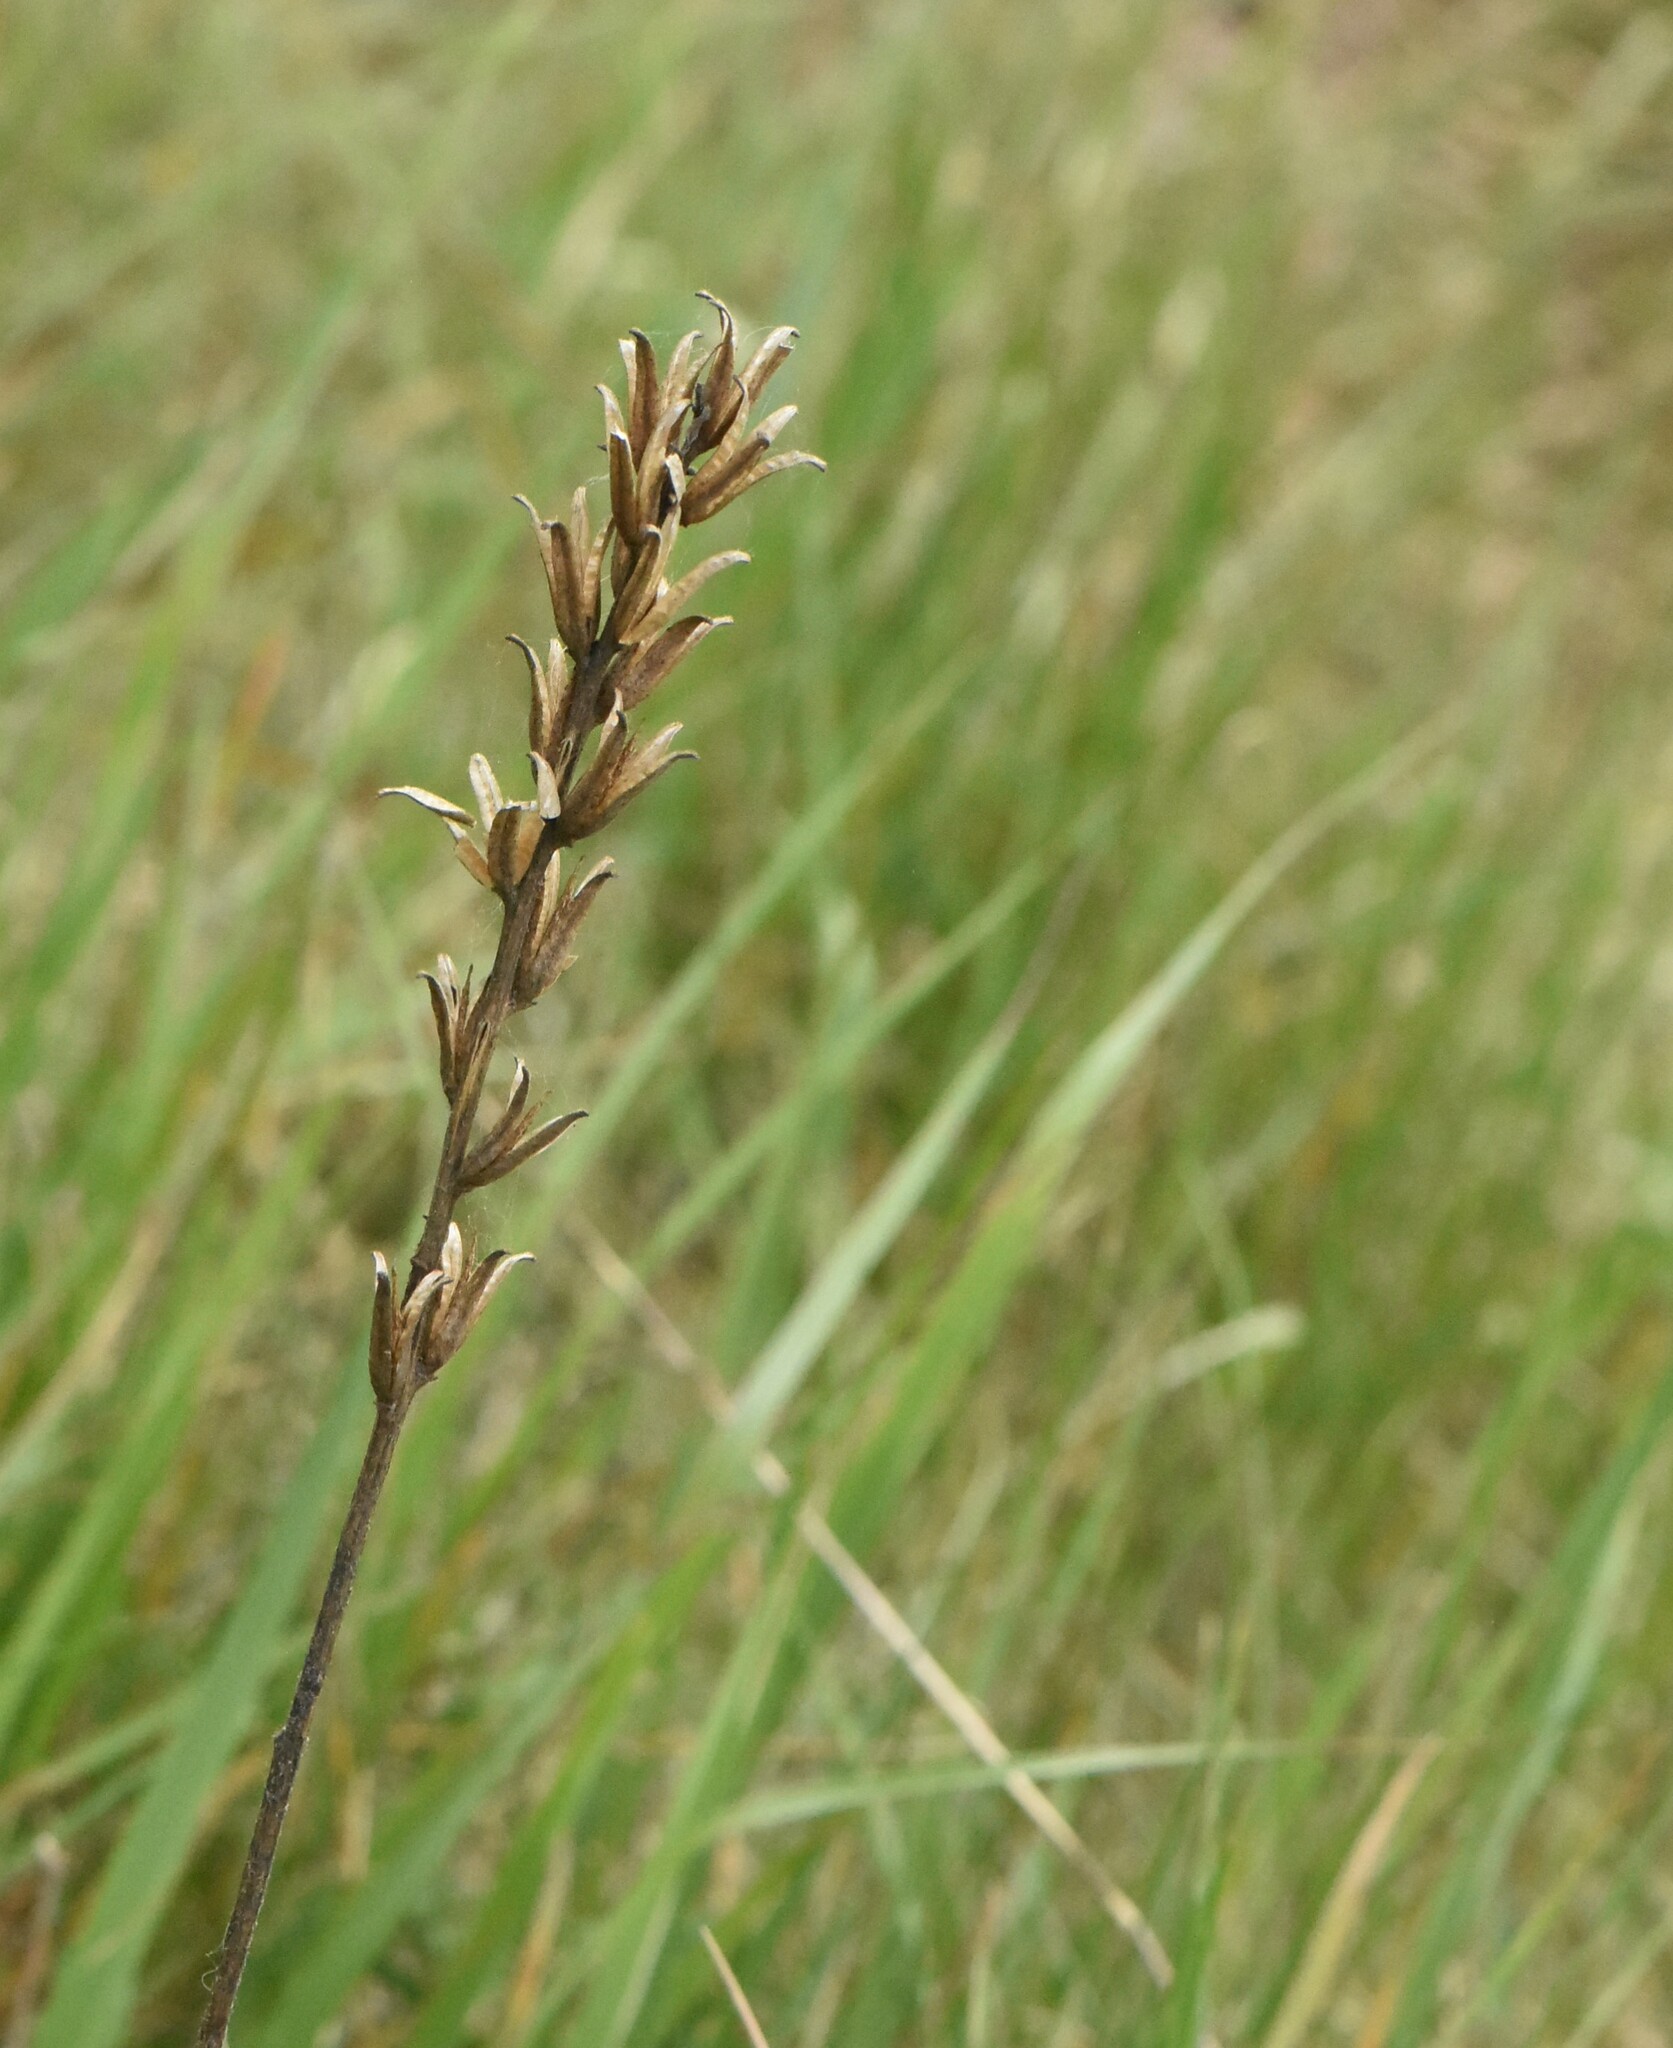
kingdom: Plantae
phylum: Tracheophyta
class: Magnoliopsida
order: Myrtales
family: Onagraceae
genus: Oenothera
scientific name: Oenothera
